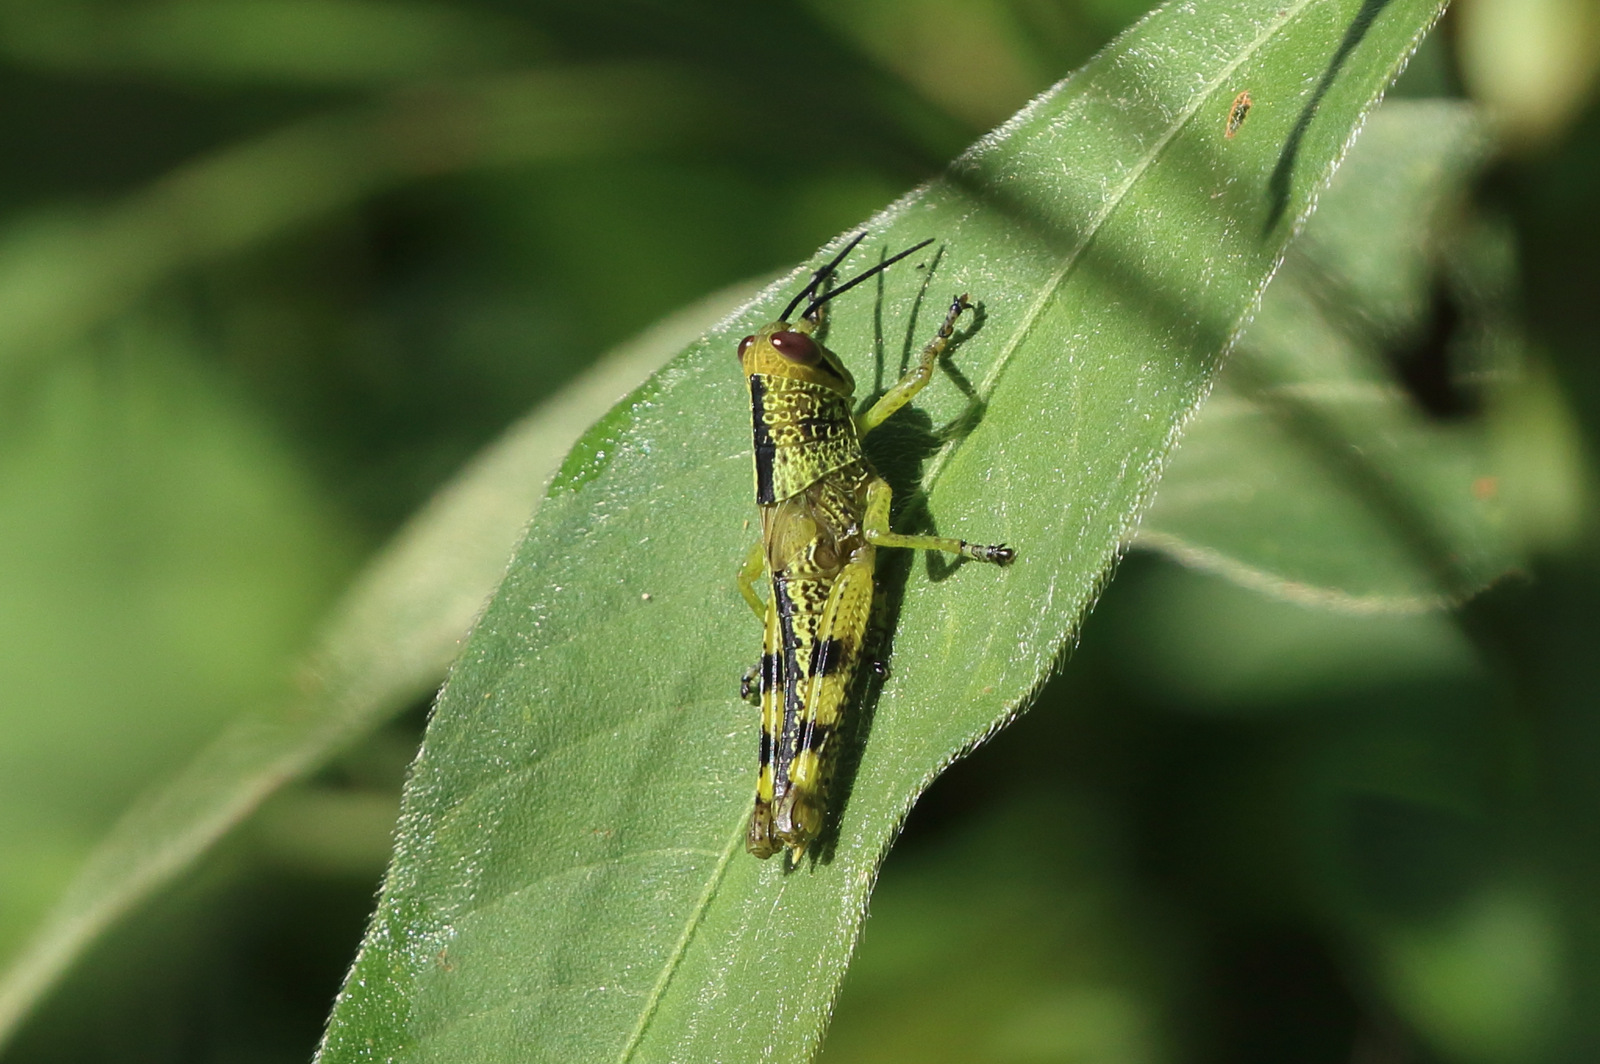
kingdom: Animalia
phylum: Arthropoda
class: Insecta
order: Orthoptera
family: Acrididae
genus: Valanga
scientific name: Valanga irregularis
